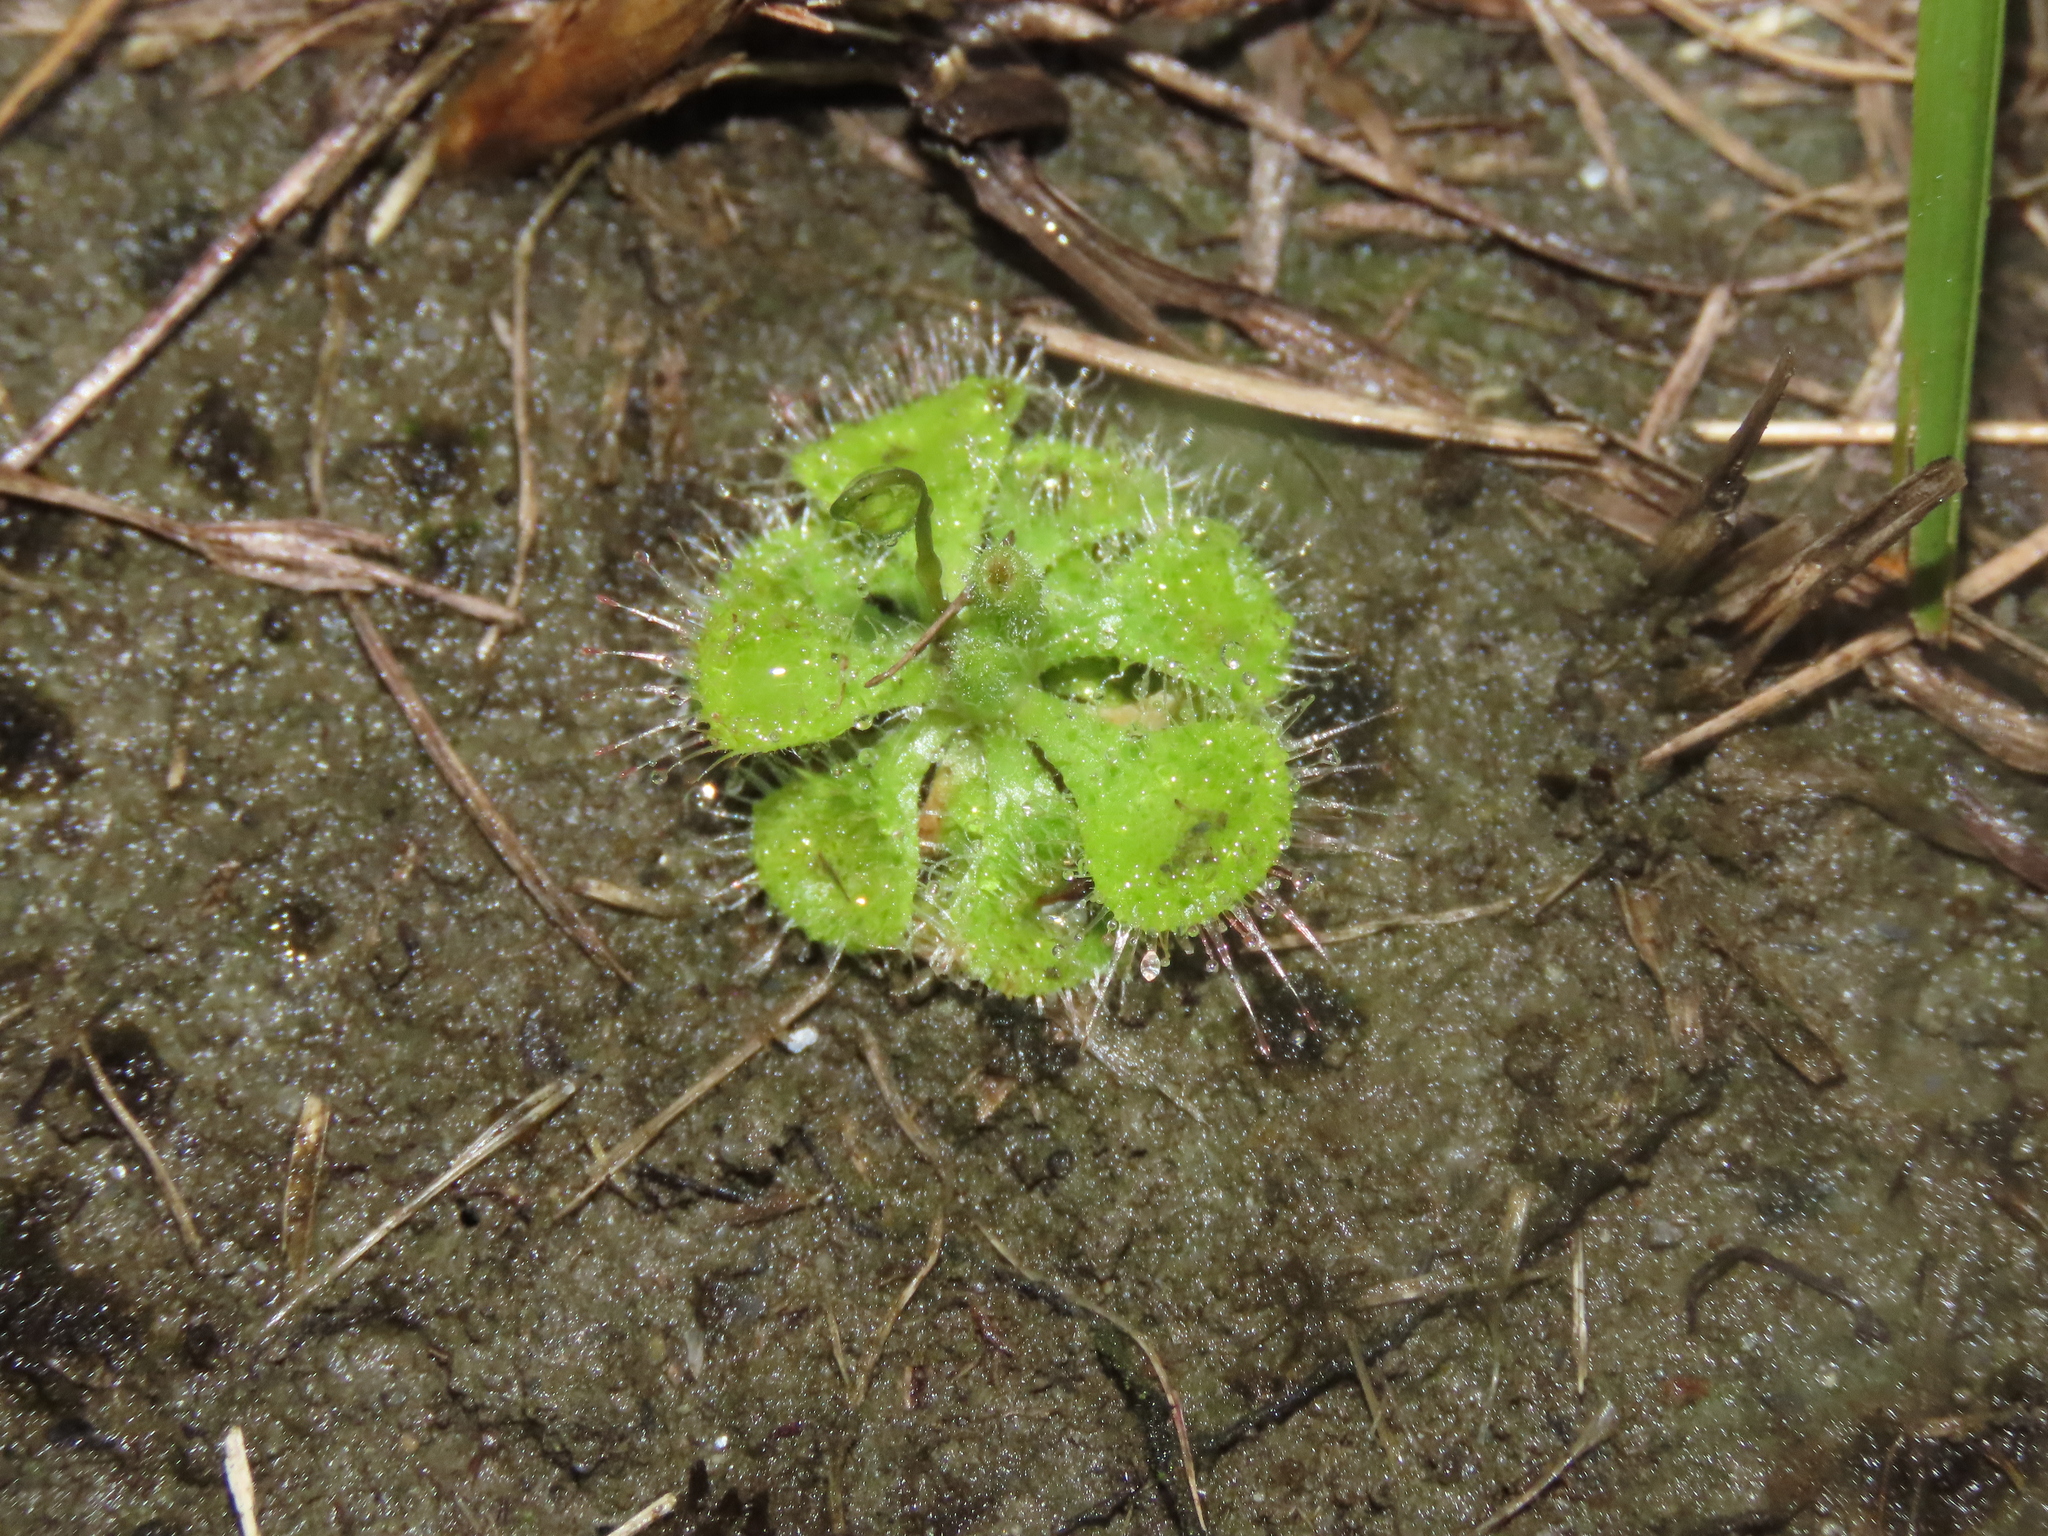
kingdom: Plantae
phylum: Tracheophyta
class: Magnoliopsida
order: Caryophyllales
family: Droseraceae
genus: Drosera
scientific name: Drosera spatulata
